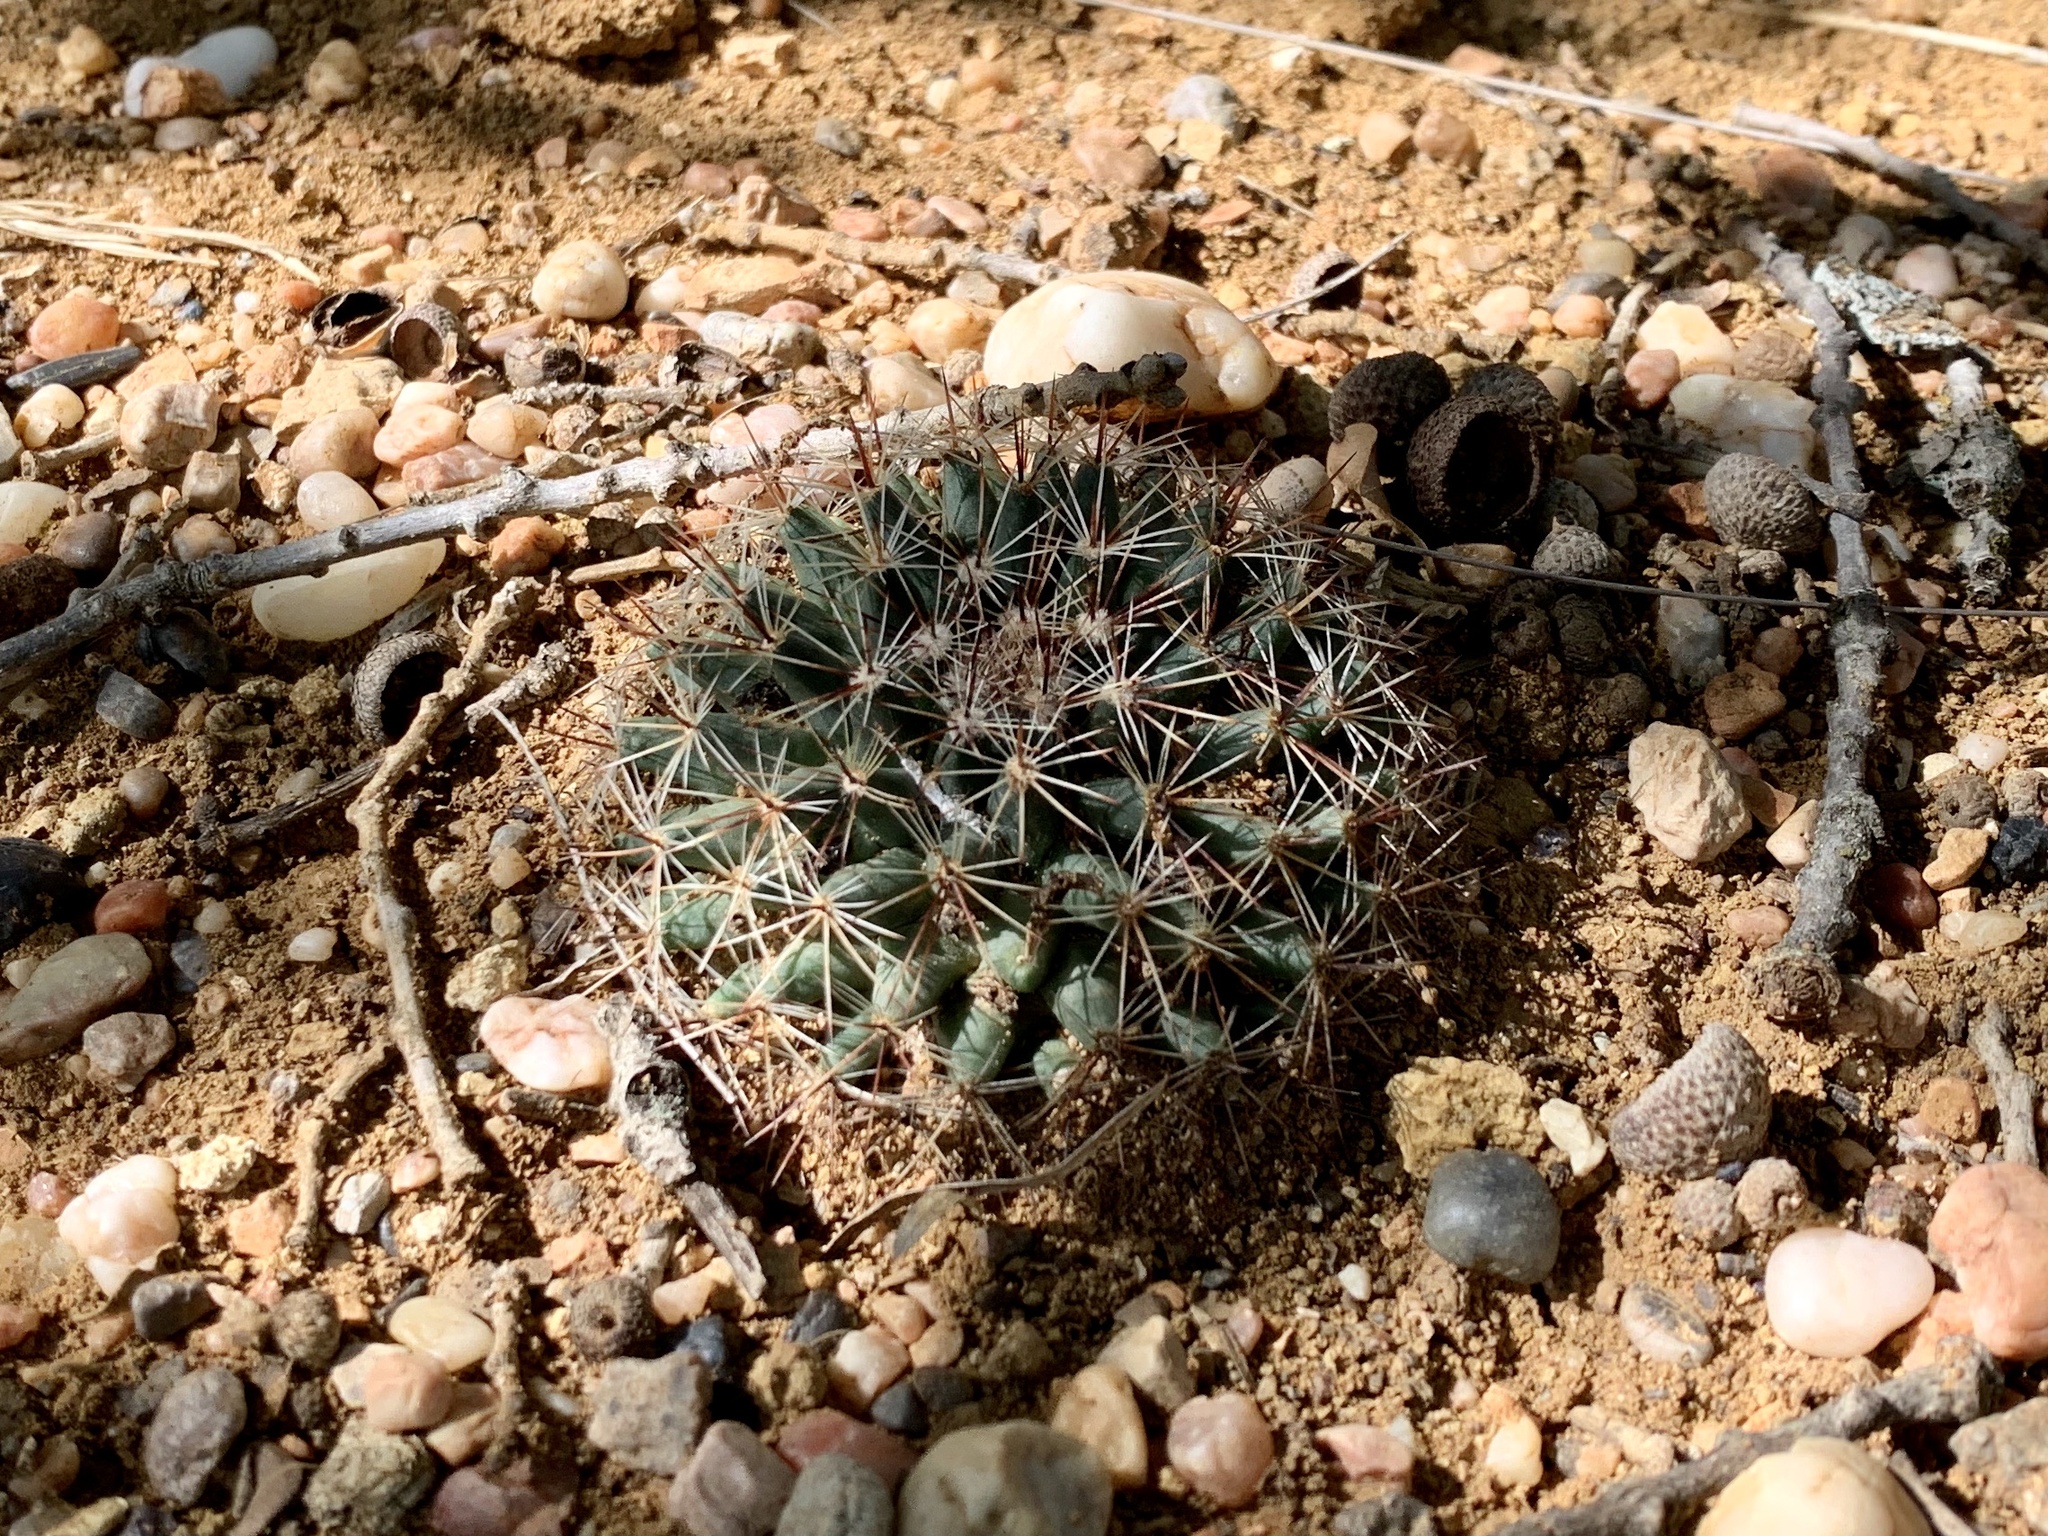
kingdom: Plantae
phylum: Tracheophyta
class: Magnoliopsida
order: Caryophyllales
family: Cactaceae
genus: Mammillaria
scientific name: Mammillaria heyderi
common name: Little nipple cactus
